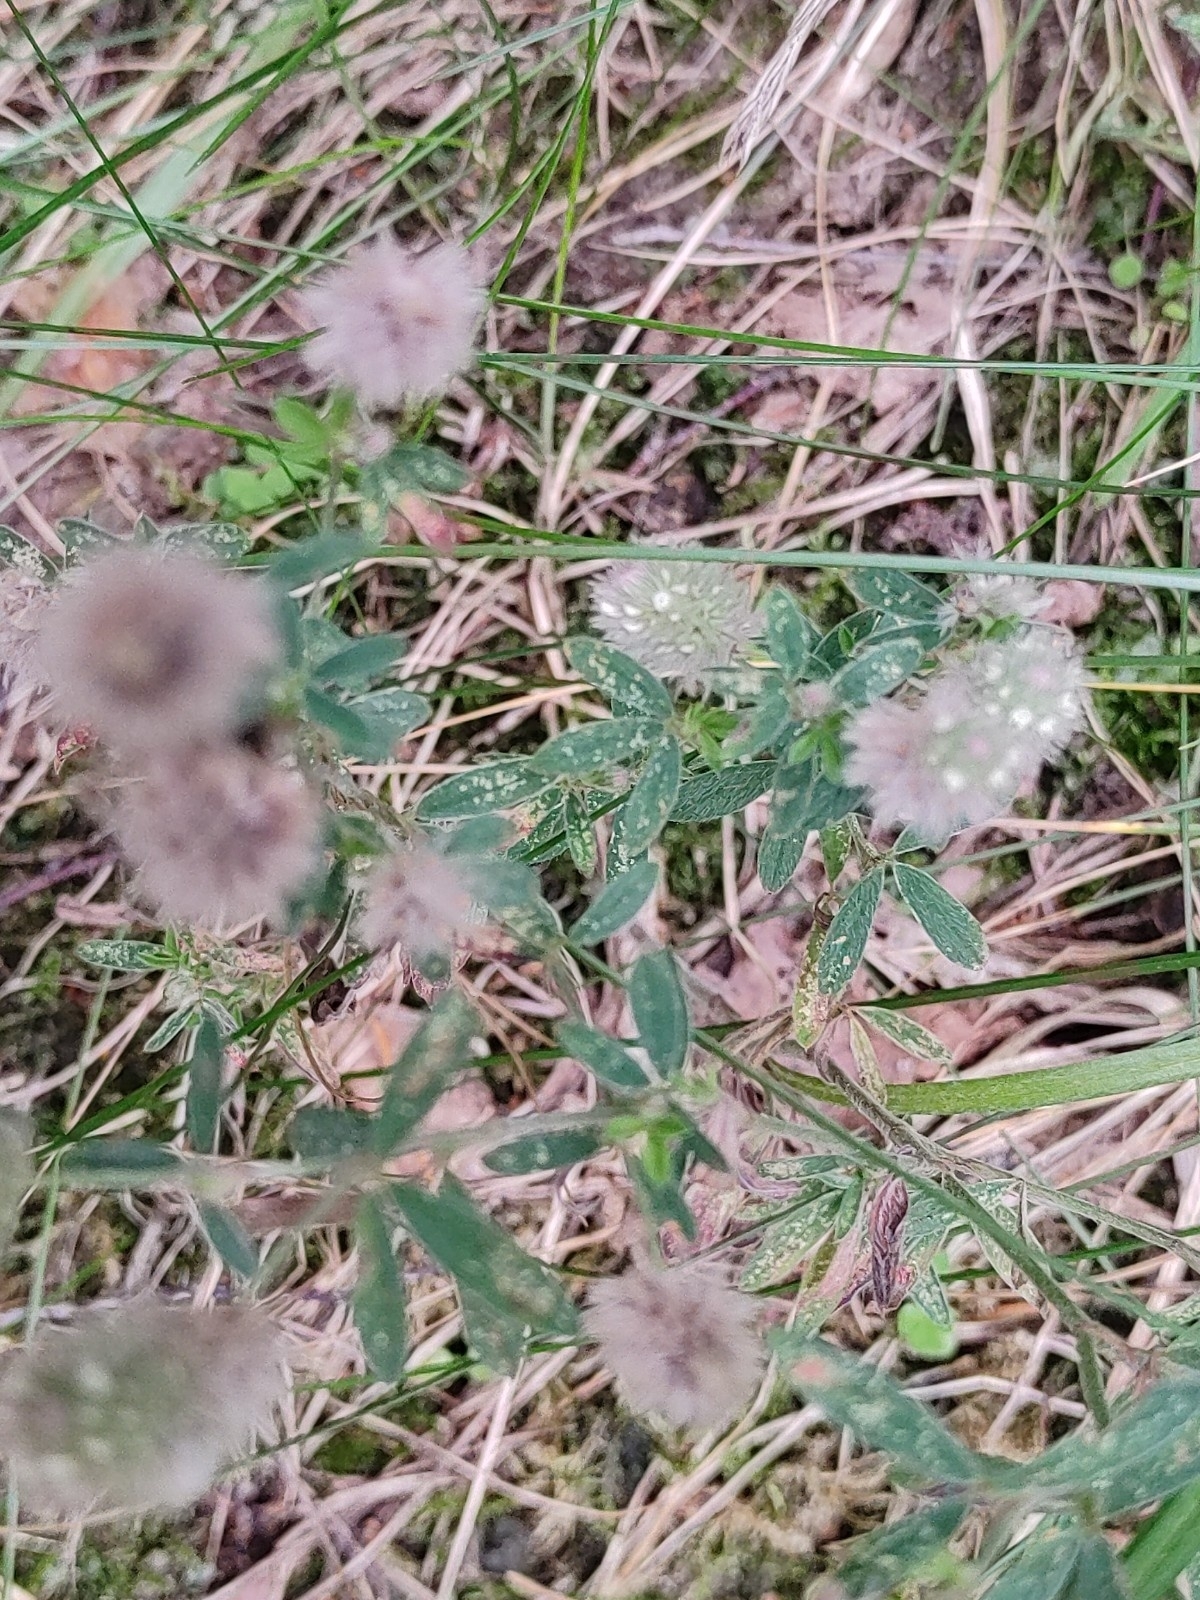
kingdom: Plantae
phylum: Tracheophyta
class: Magnoliopsida
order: Fabales
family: Fabaceae
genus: Trifolium
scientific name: Trifolium arvense
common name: Hare's-foot clover
